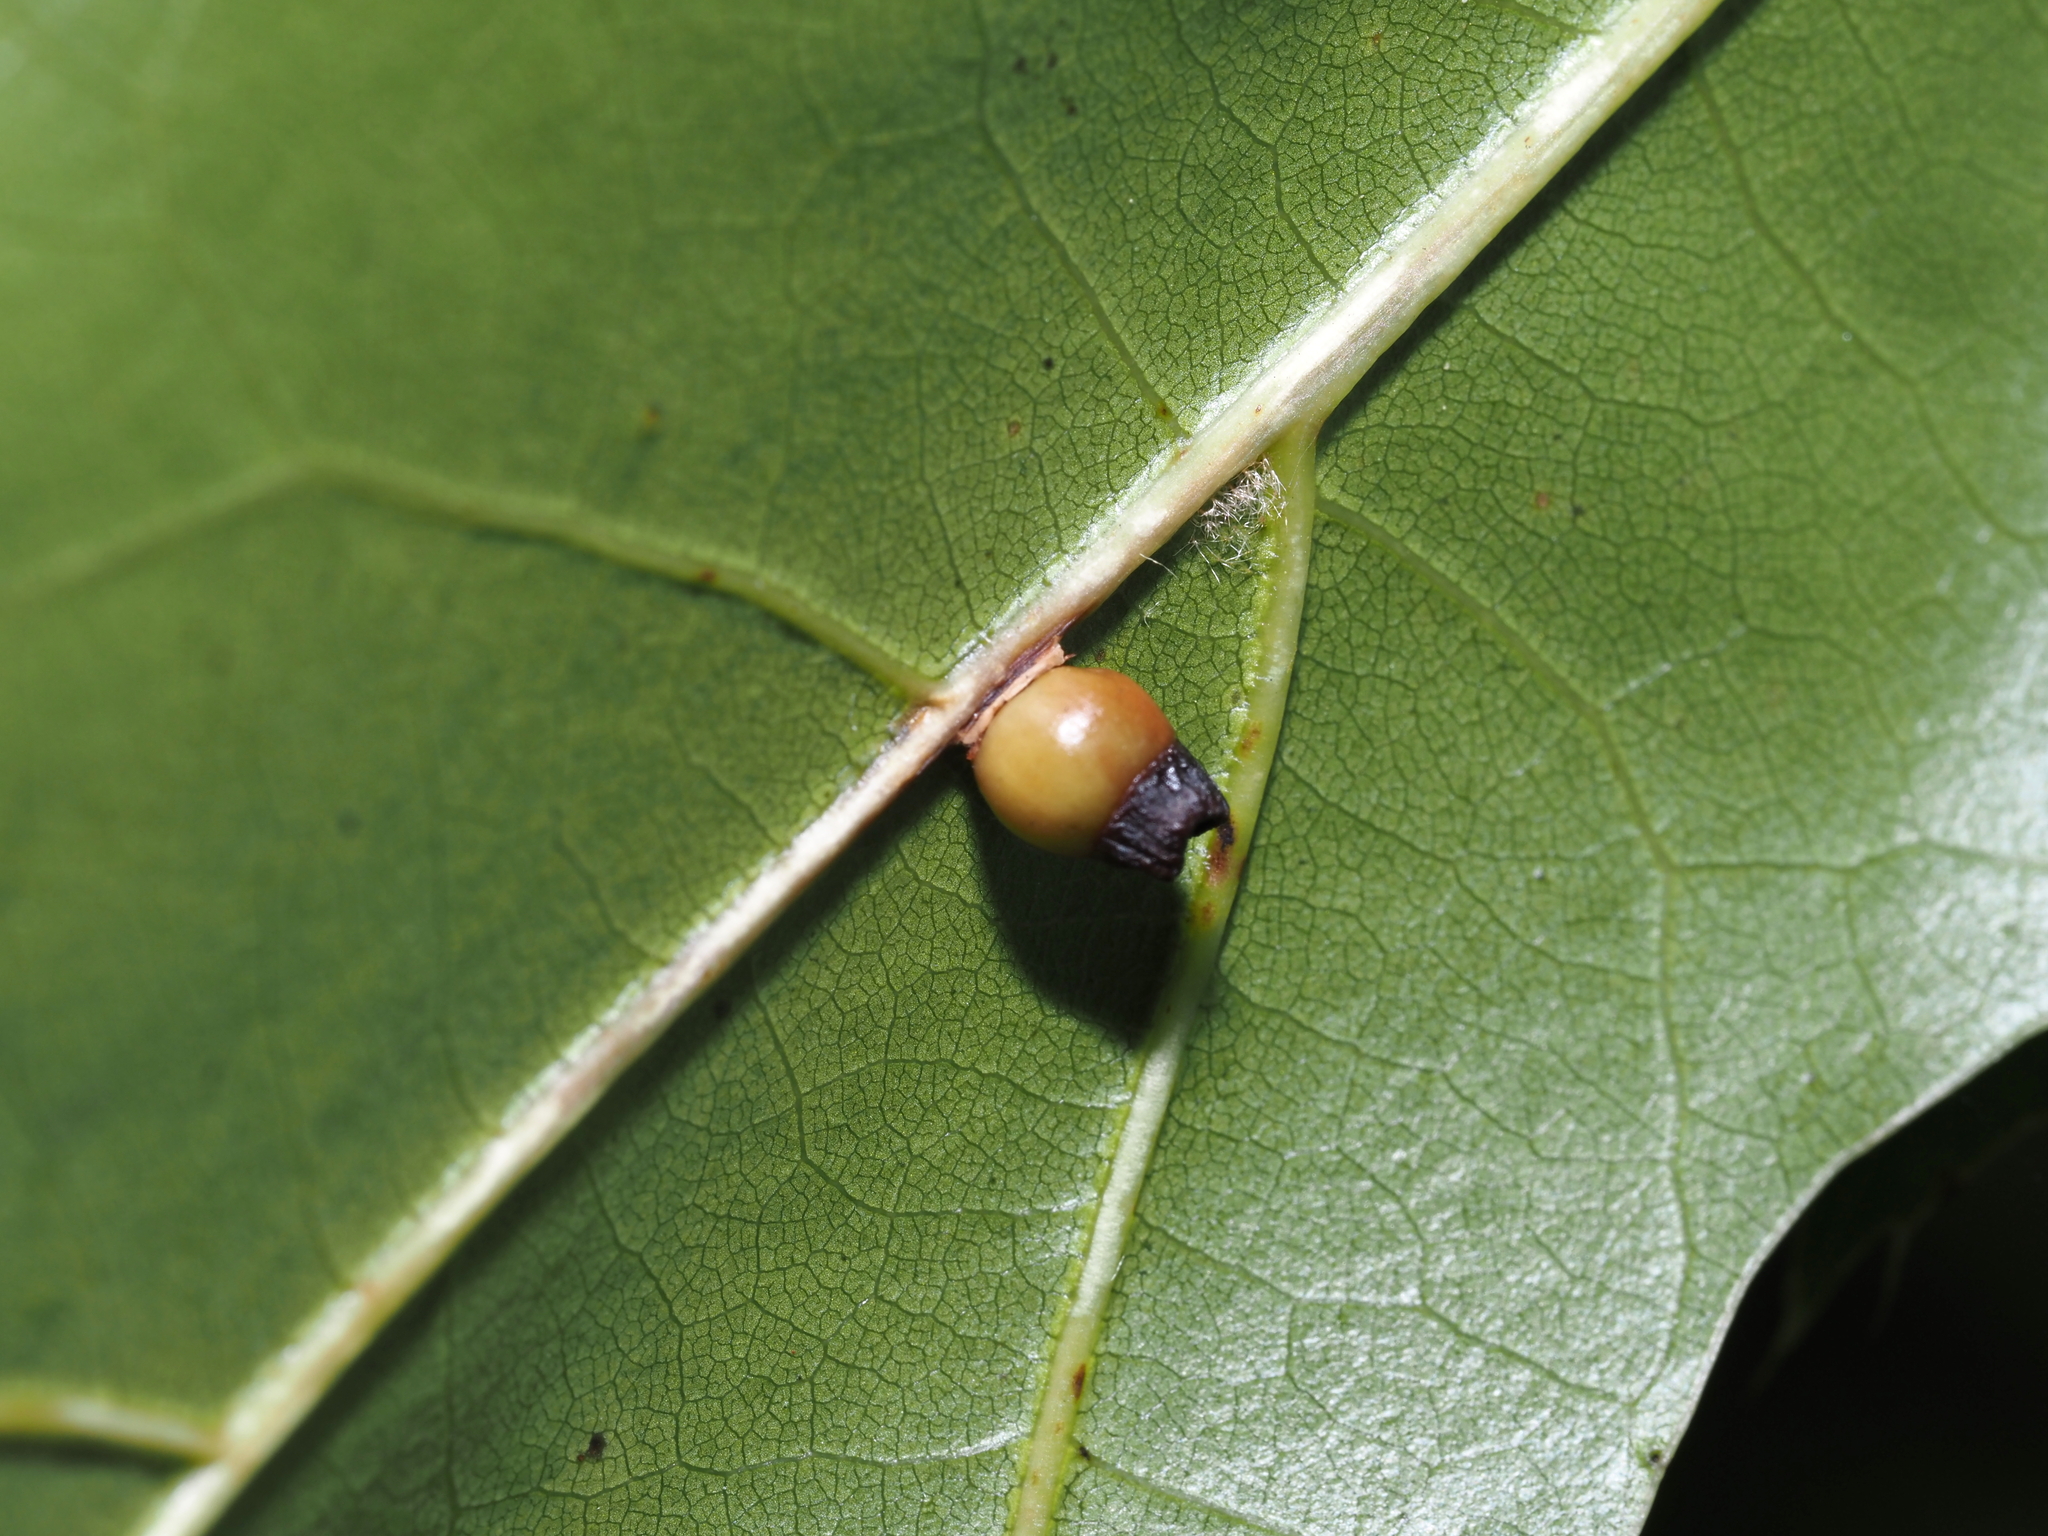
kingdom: Animalia
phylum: Arthropoda
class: Insecta
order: Hymenoptera
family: Cynipidae
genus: Kokkocynips
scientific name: Kokkocynips rileyi
